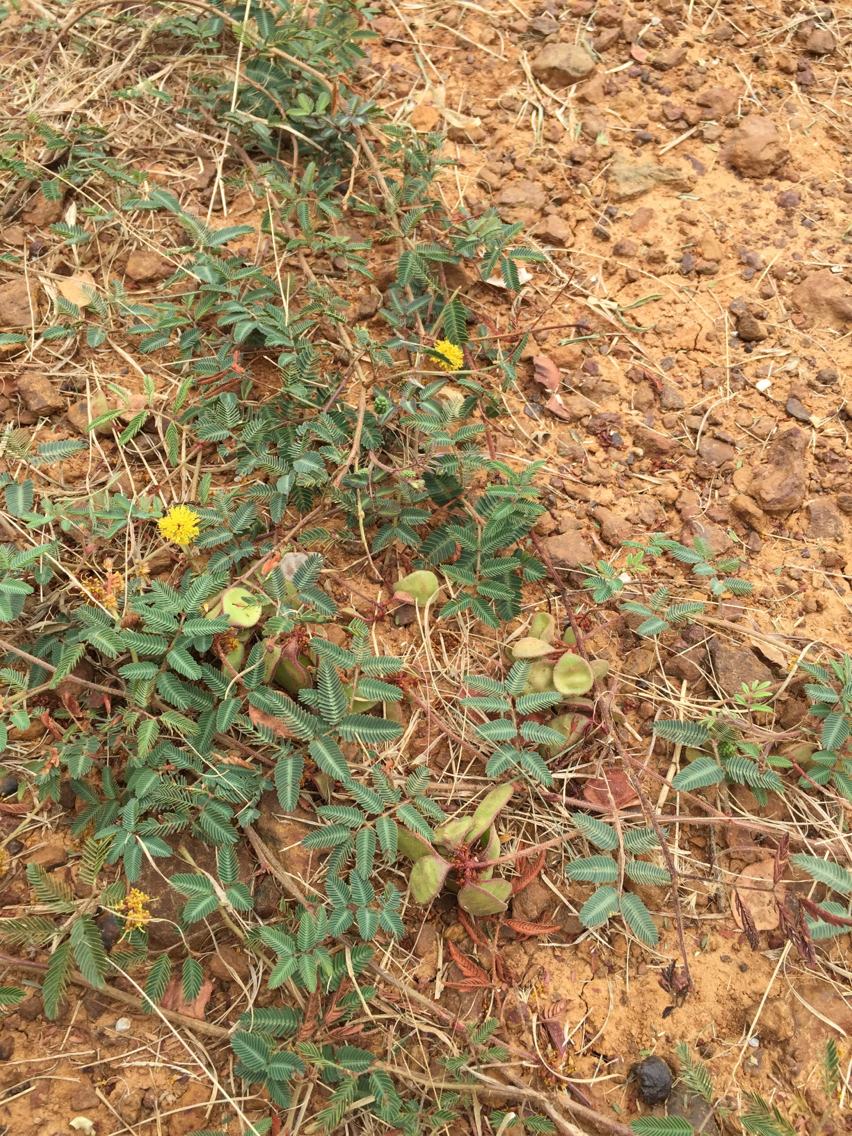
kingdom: Plantae
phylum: Tracheophyta
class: Magnoliopsida
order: Fabales
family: Fabaceae
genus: Neptunia
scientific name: Neptunia lutea
